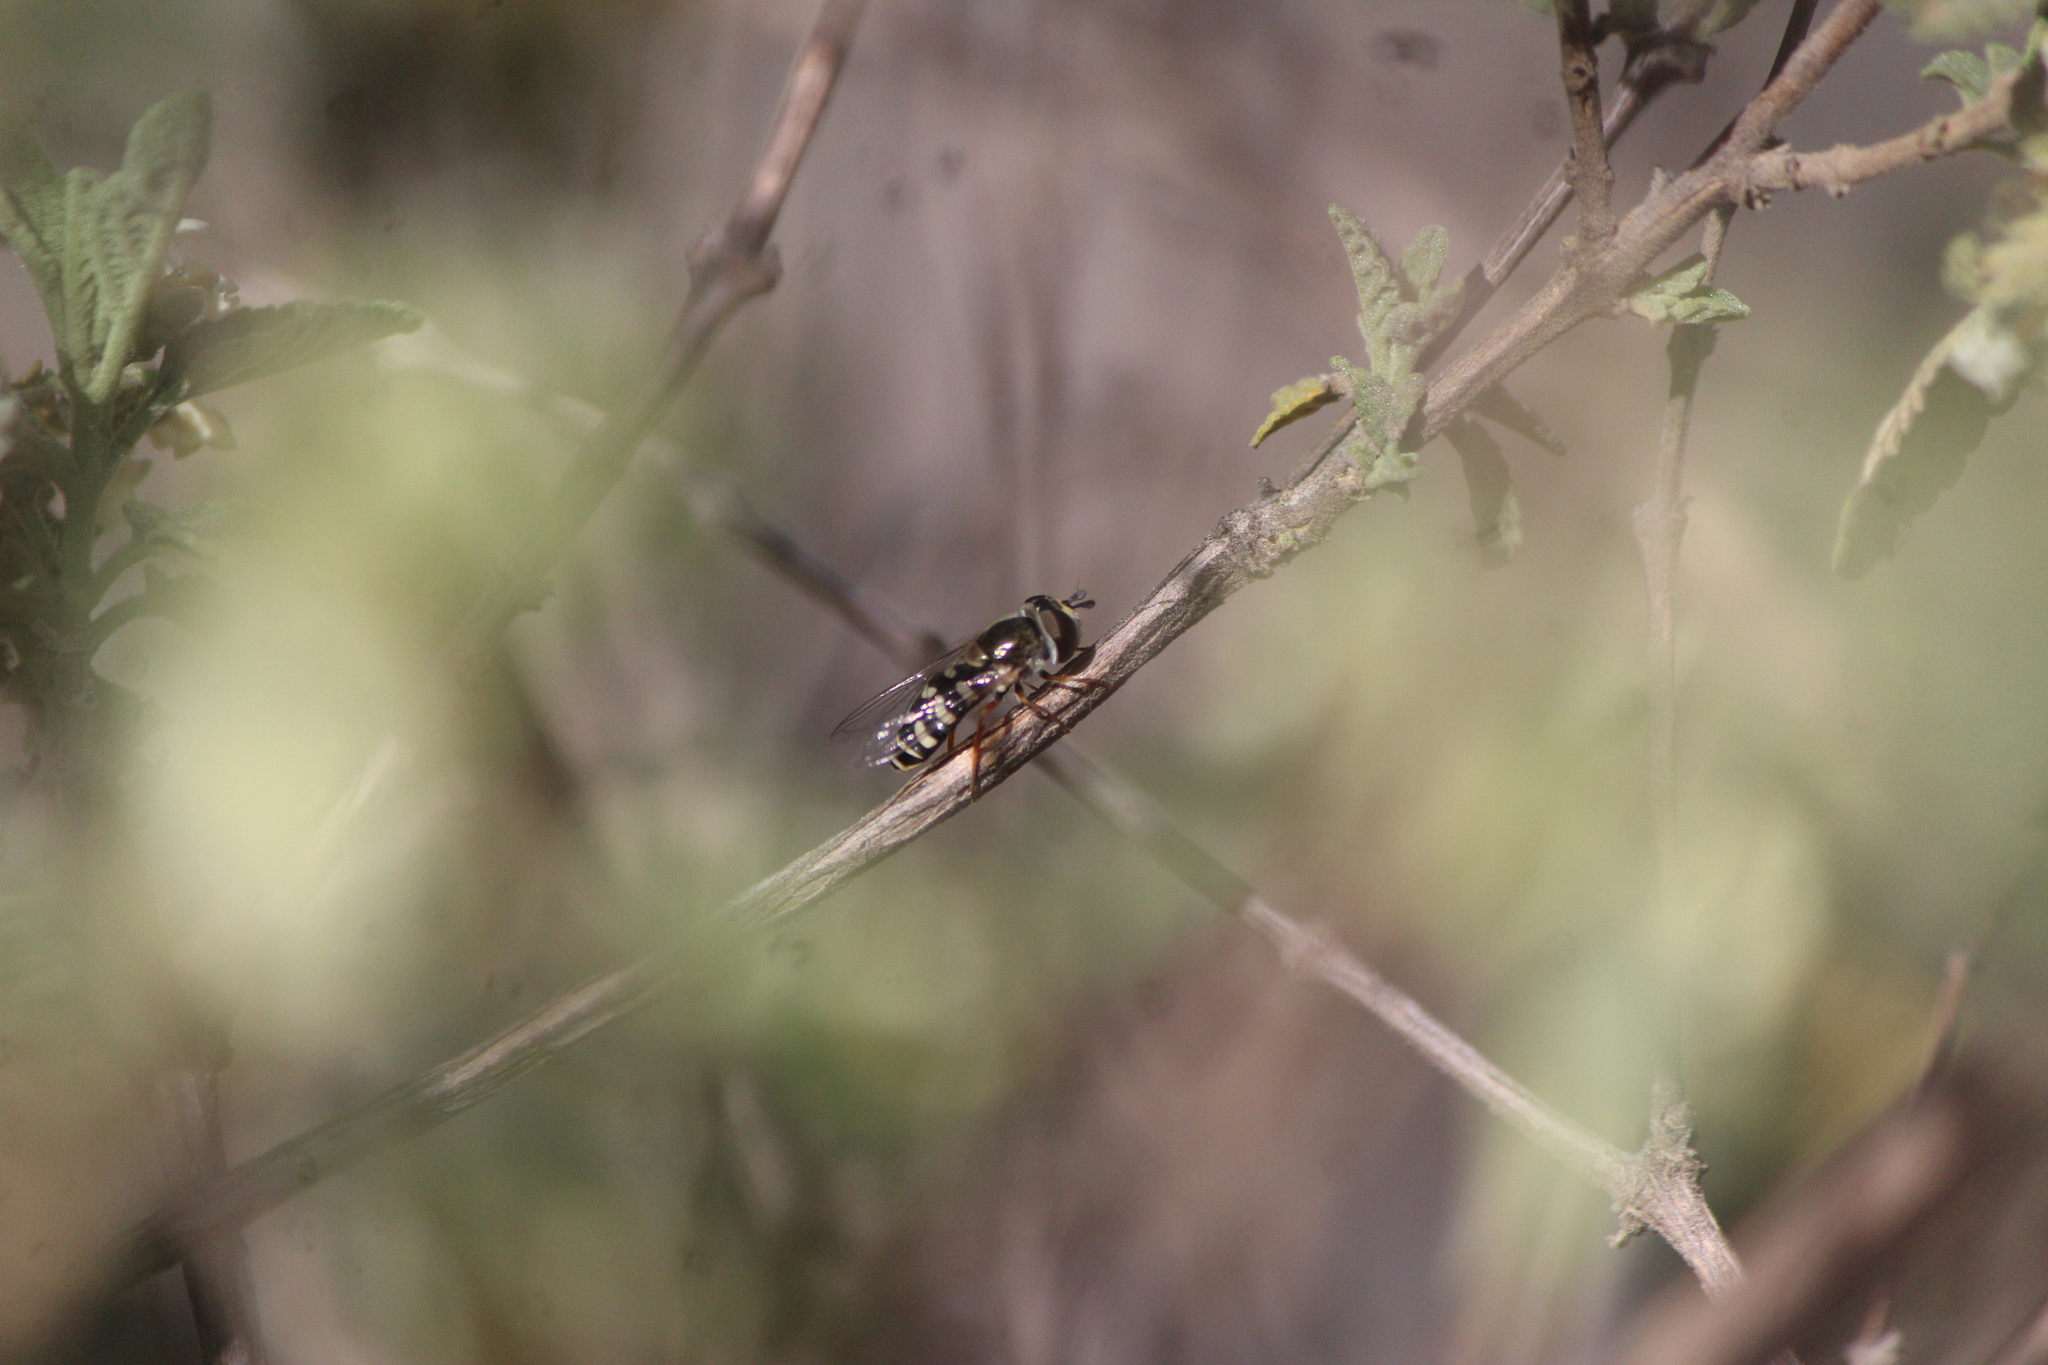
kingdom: Animalia
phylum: Arthropoda
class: Insecta
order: Diptera
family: Syrphidae
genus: Eupeodes
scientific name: Eupeodes volucris
